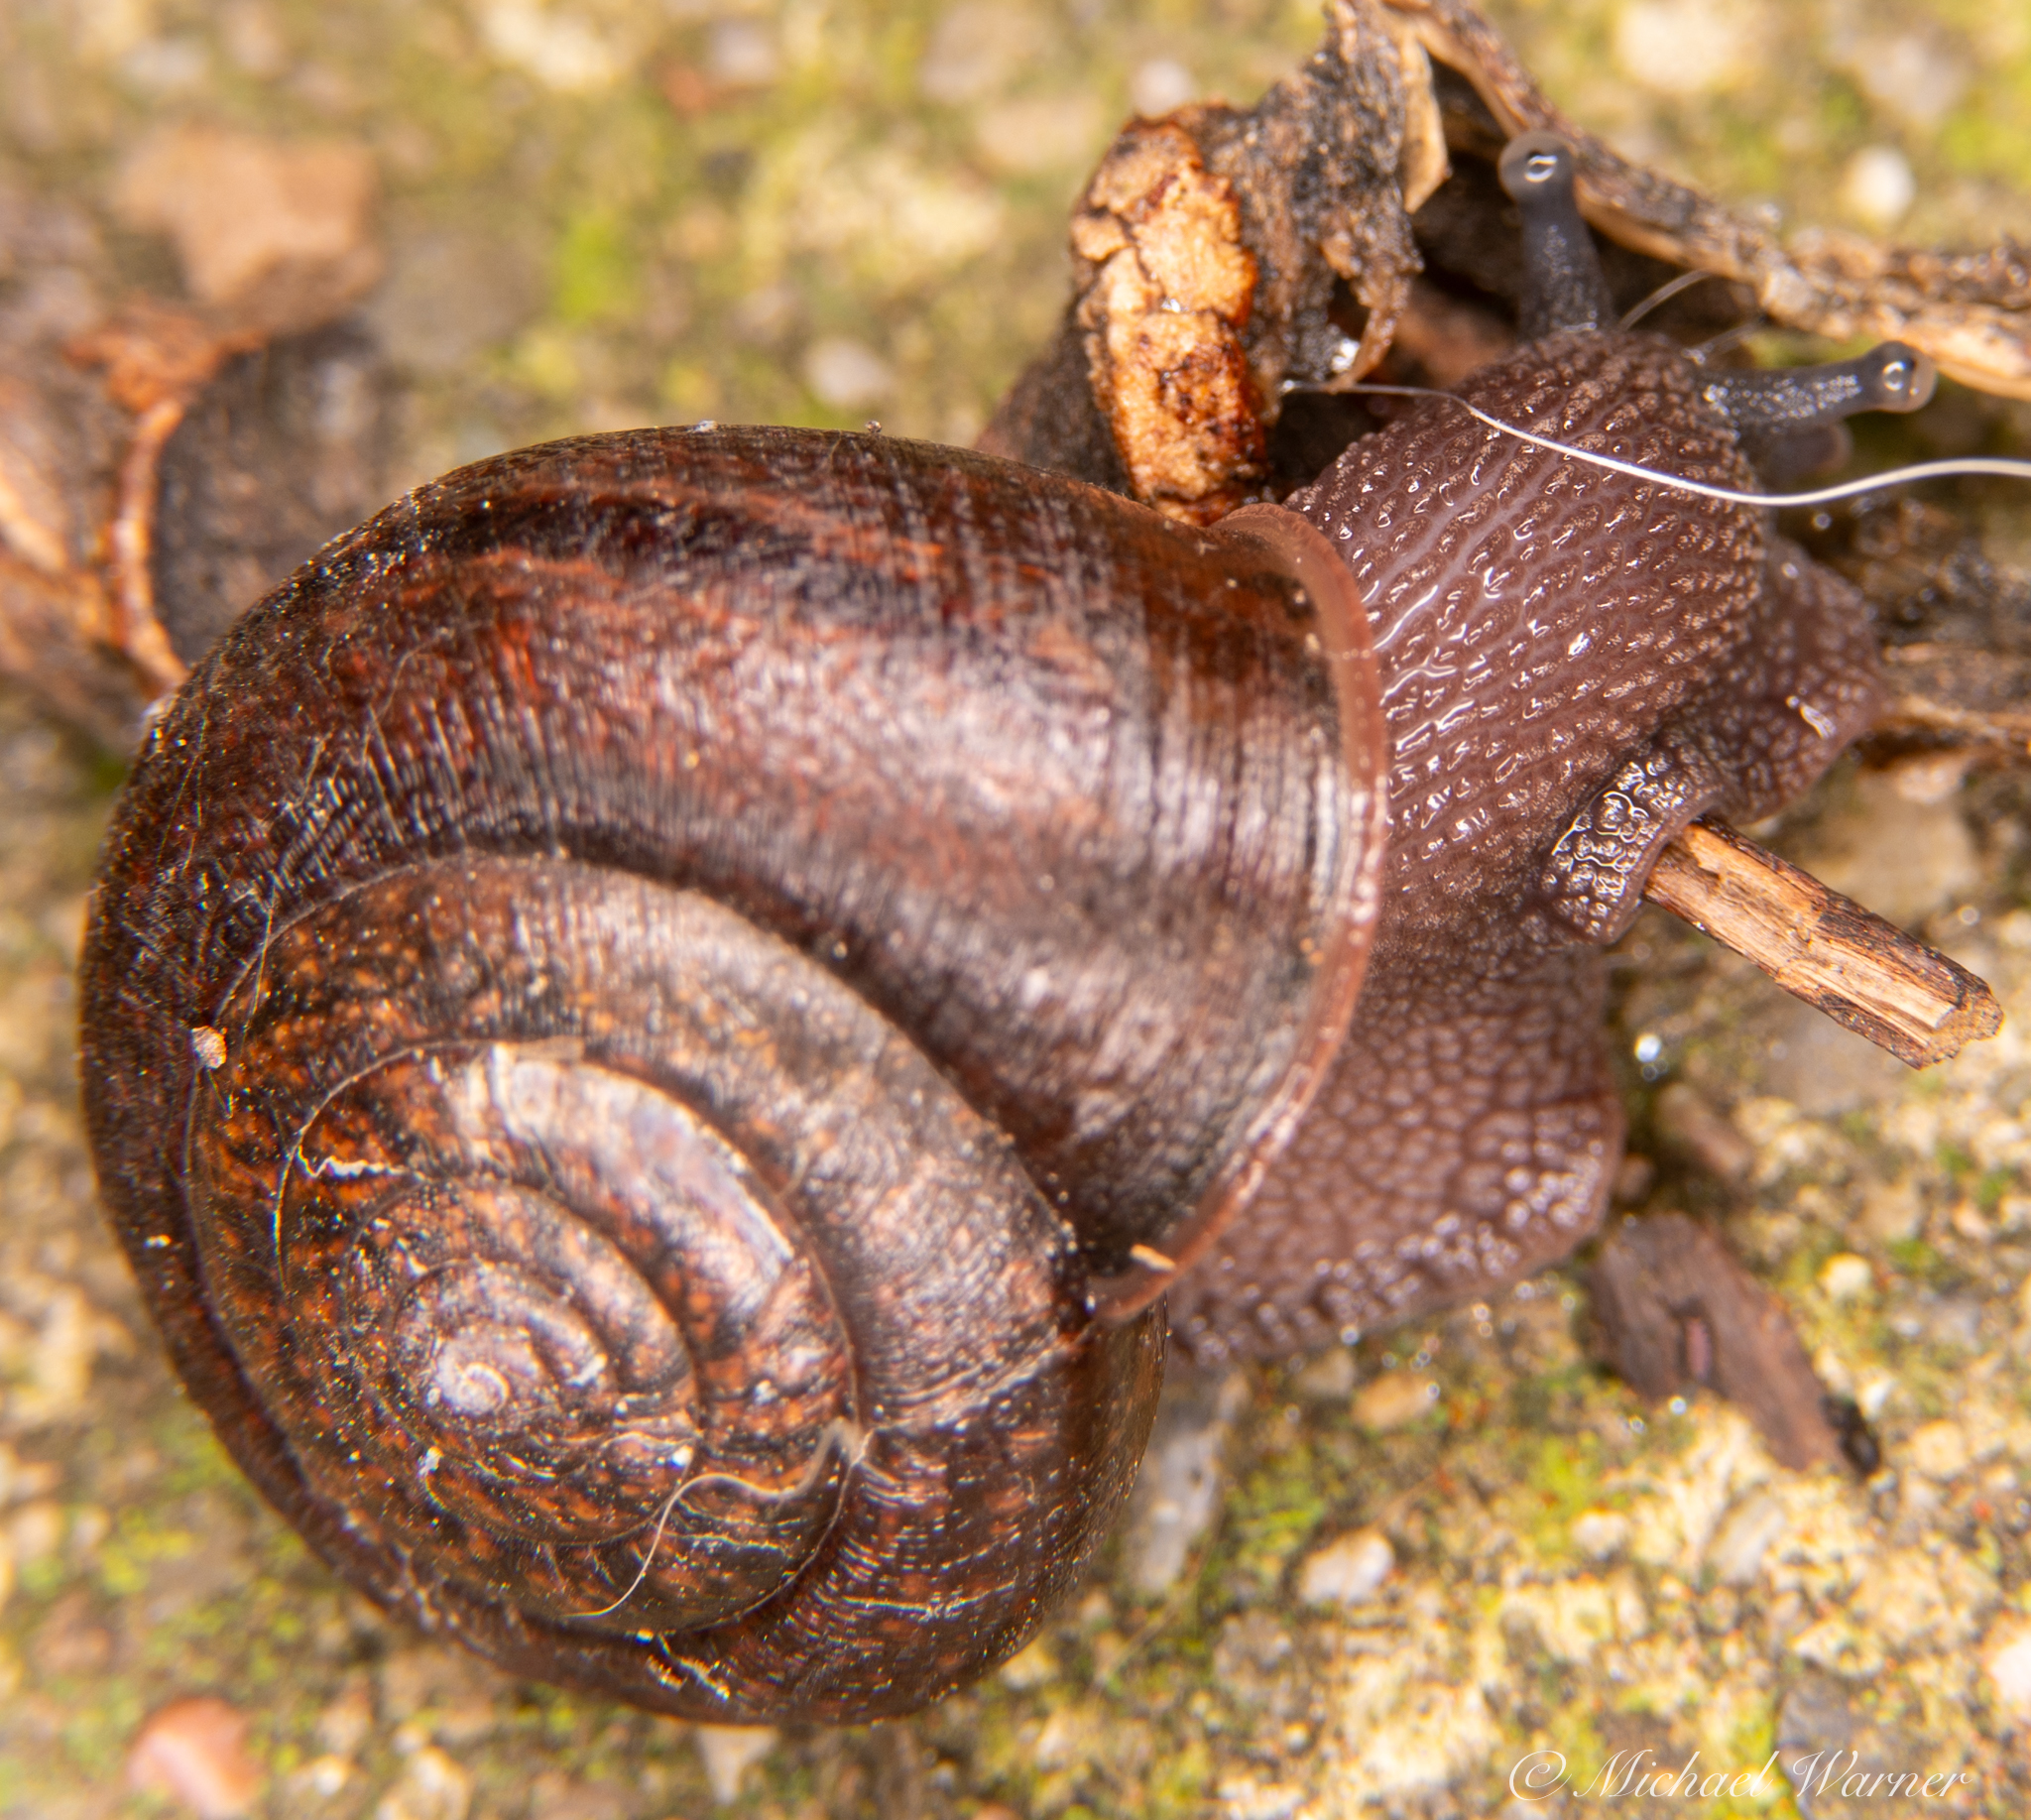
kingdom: Animalia
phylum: Mollusca
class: Gastropoda
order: Stylommatophora
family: Xanthonychidae
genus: Helminthoglypta
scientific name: Helminthoglypta diabloensis
